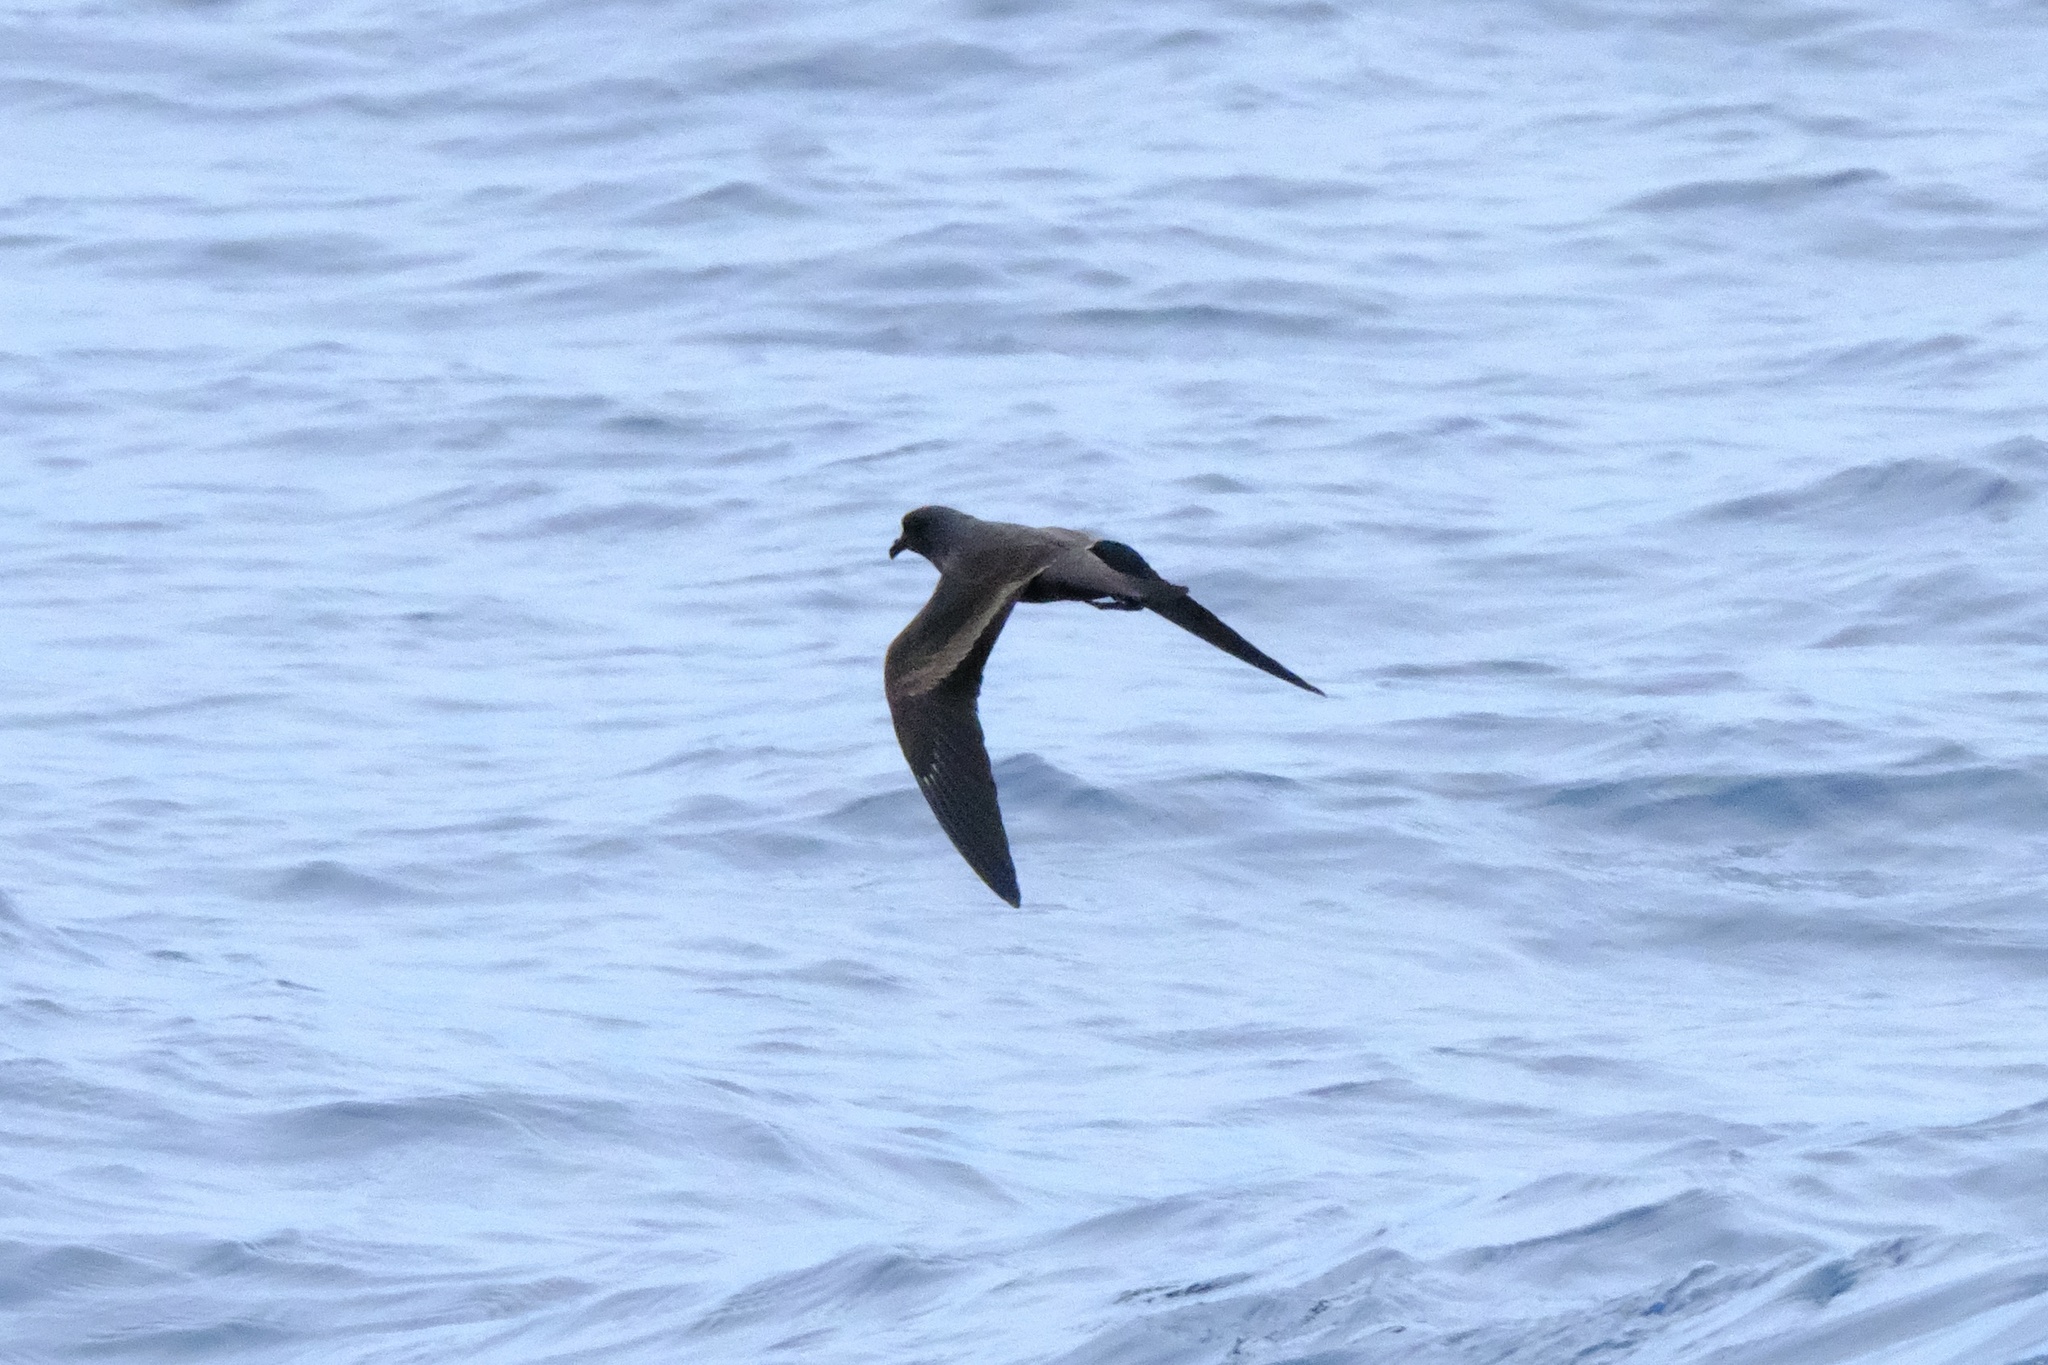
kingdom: Animalia
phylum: Chordata
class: Aves
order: Procellariiformes
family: Hydrobatidae
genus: Hydrobates
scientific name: Hydrobates melania
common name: Black storm petrel
